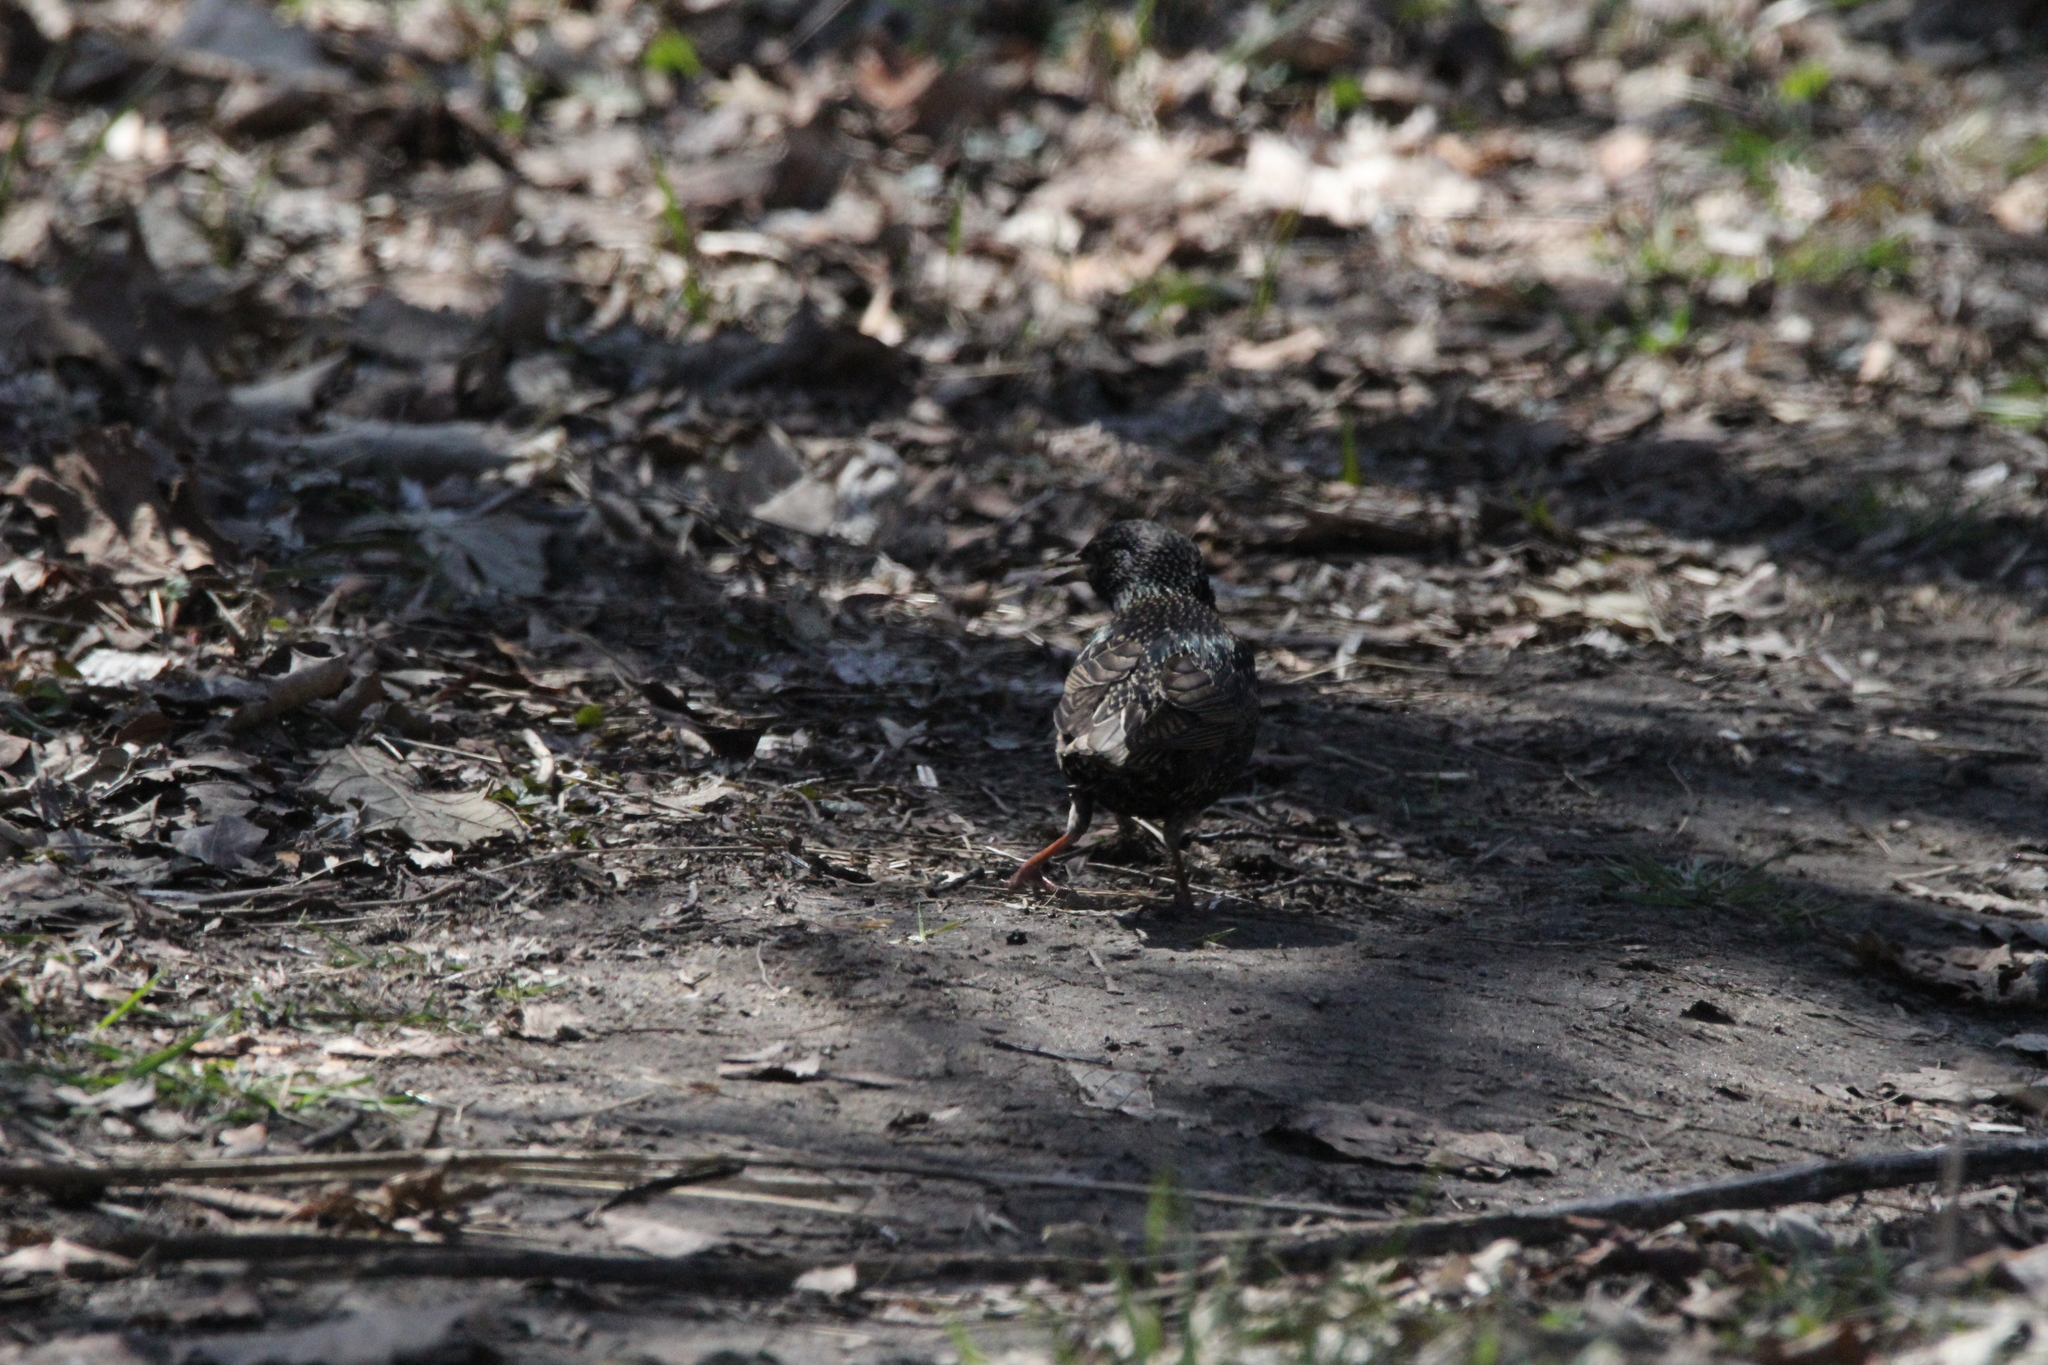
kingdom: Animalia
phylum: Chordata
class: Aves
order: Passeriformes
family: Sturnidae
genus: Sturnus
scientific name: Sturnus vulgaris
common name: Common starling
